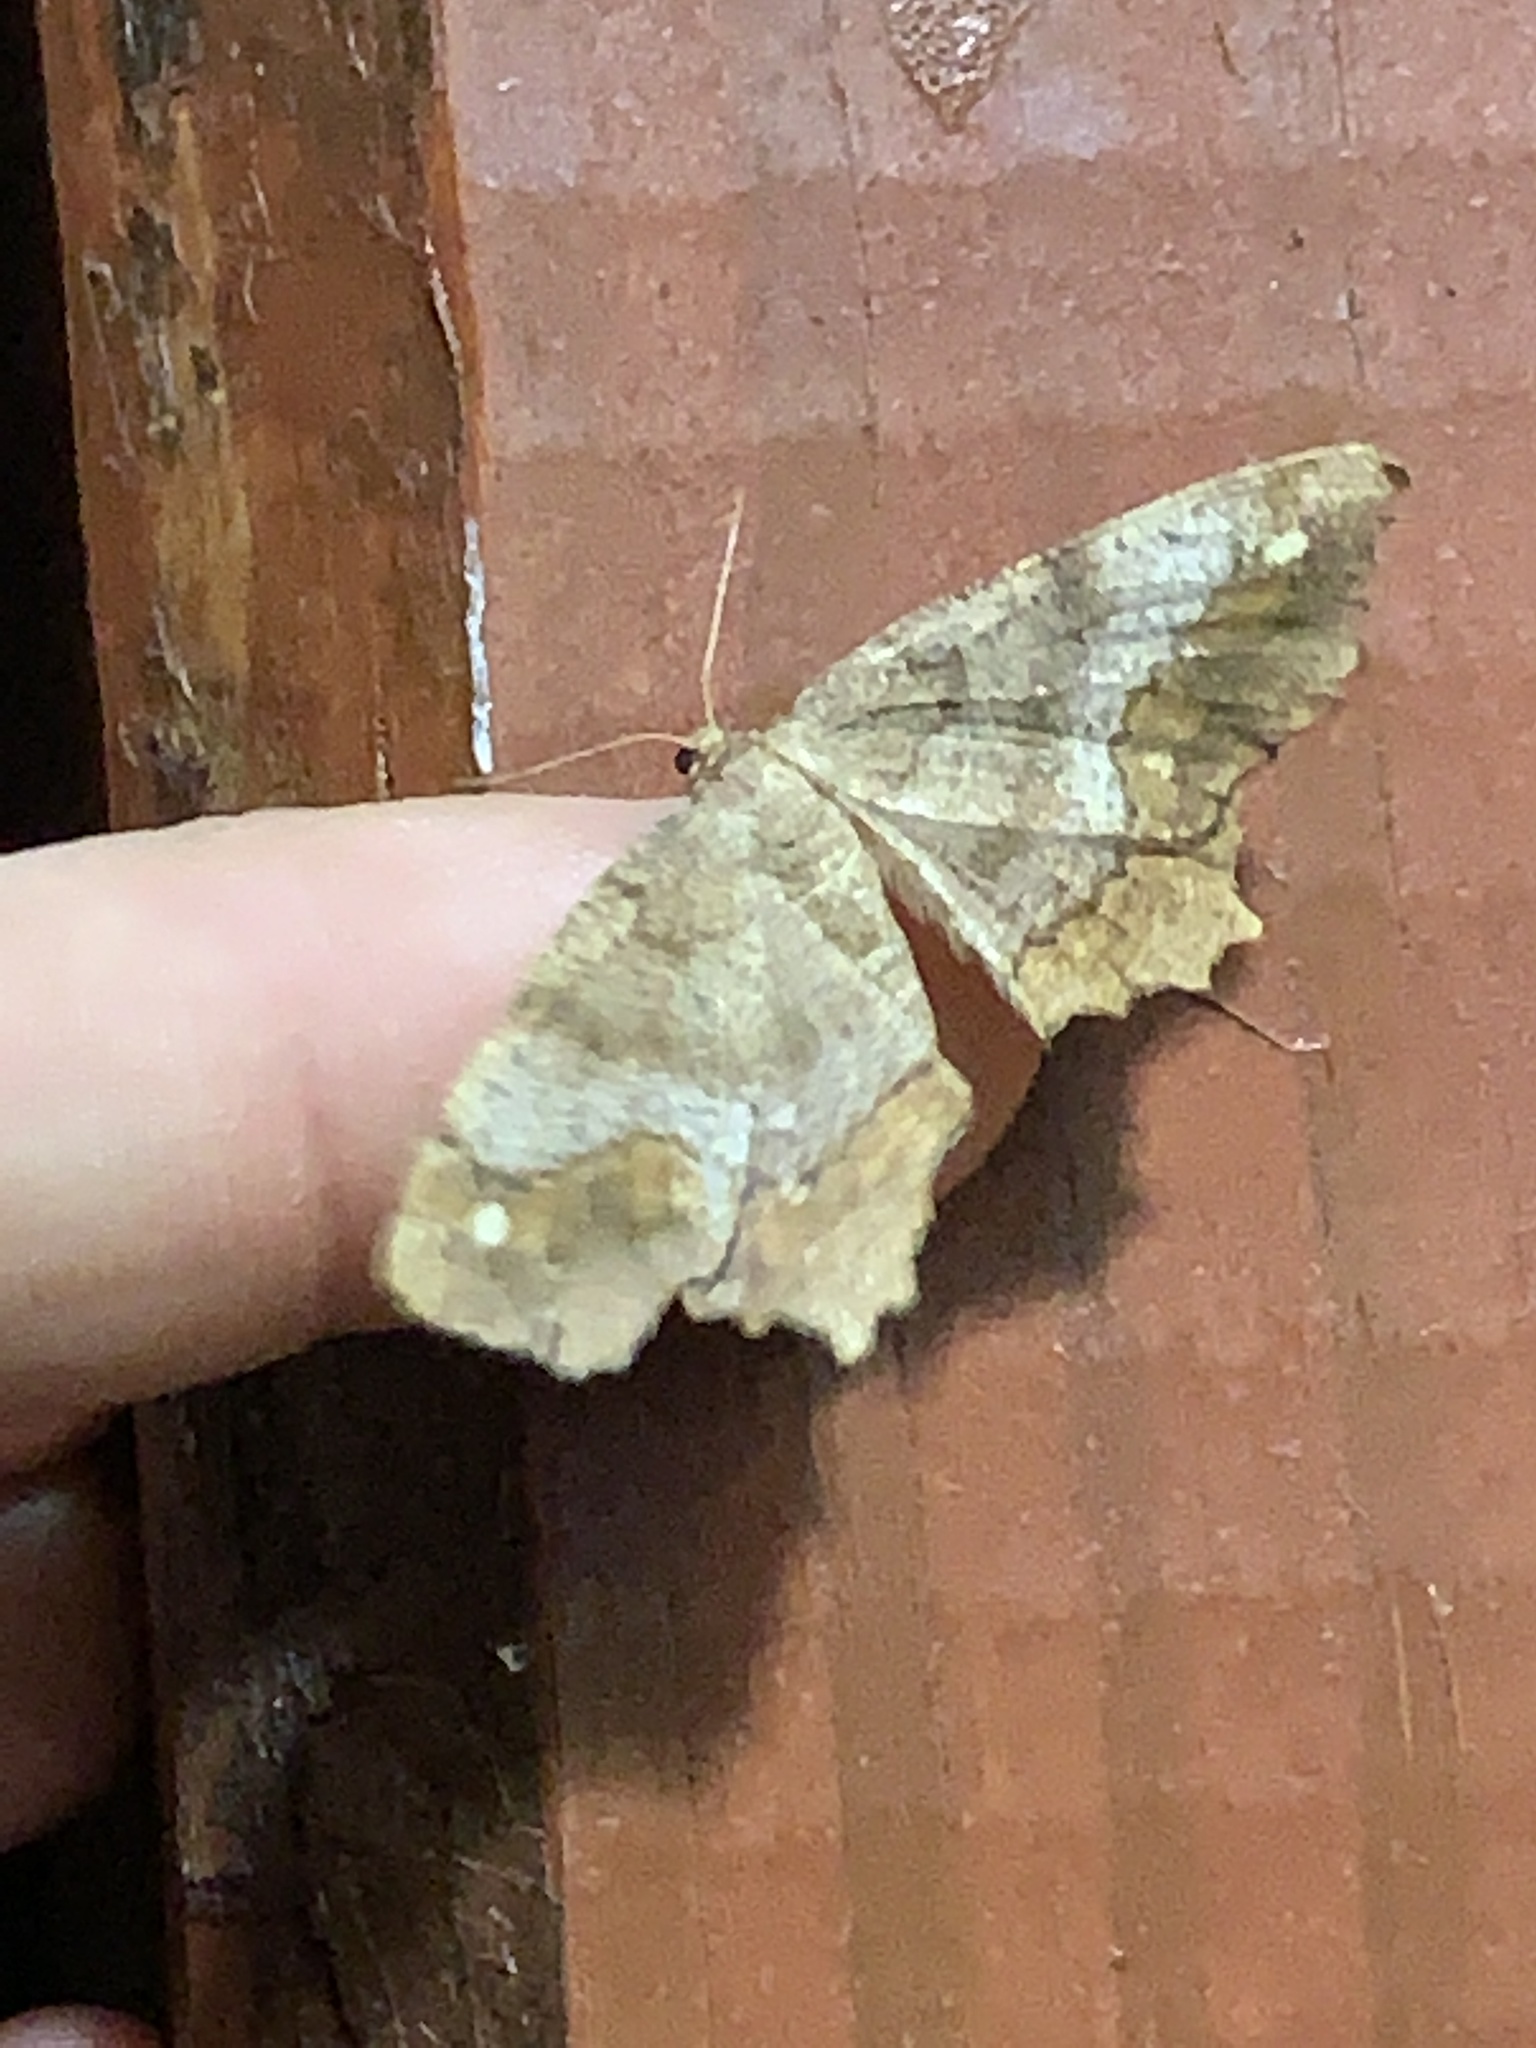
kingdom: Animalia
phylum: Arthropoda
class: Insecta
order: Lepidoptera
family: Geometridae
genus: Hypagyrtis
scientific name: Hypagyrtis unipunctata
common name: One-spotted variant
